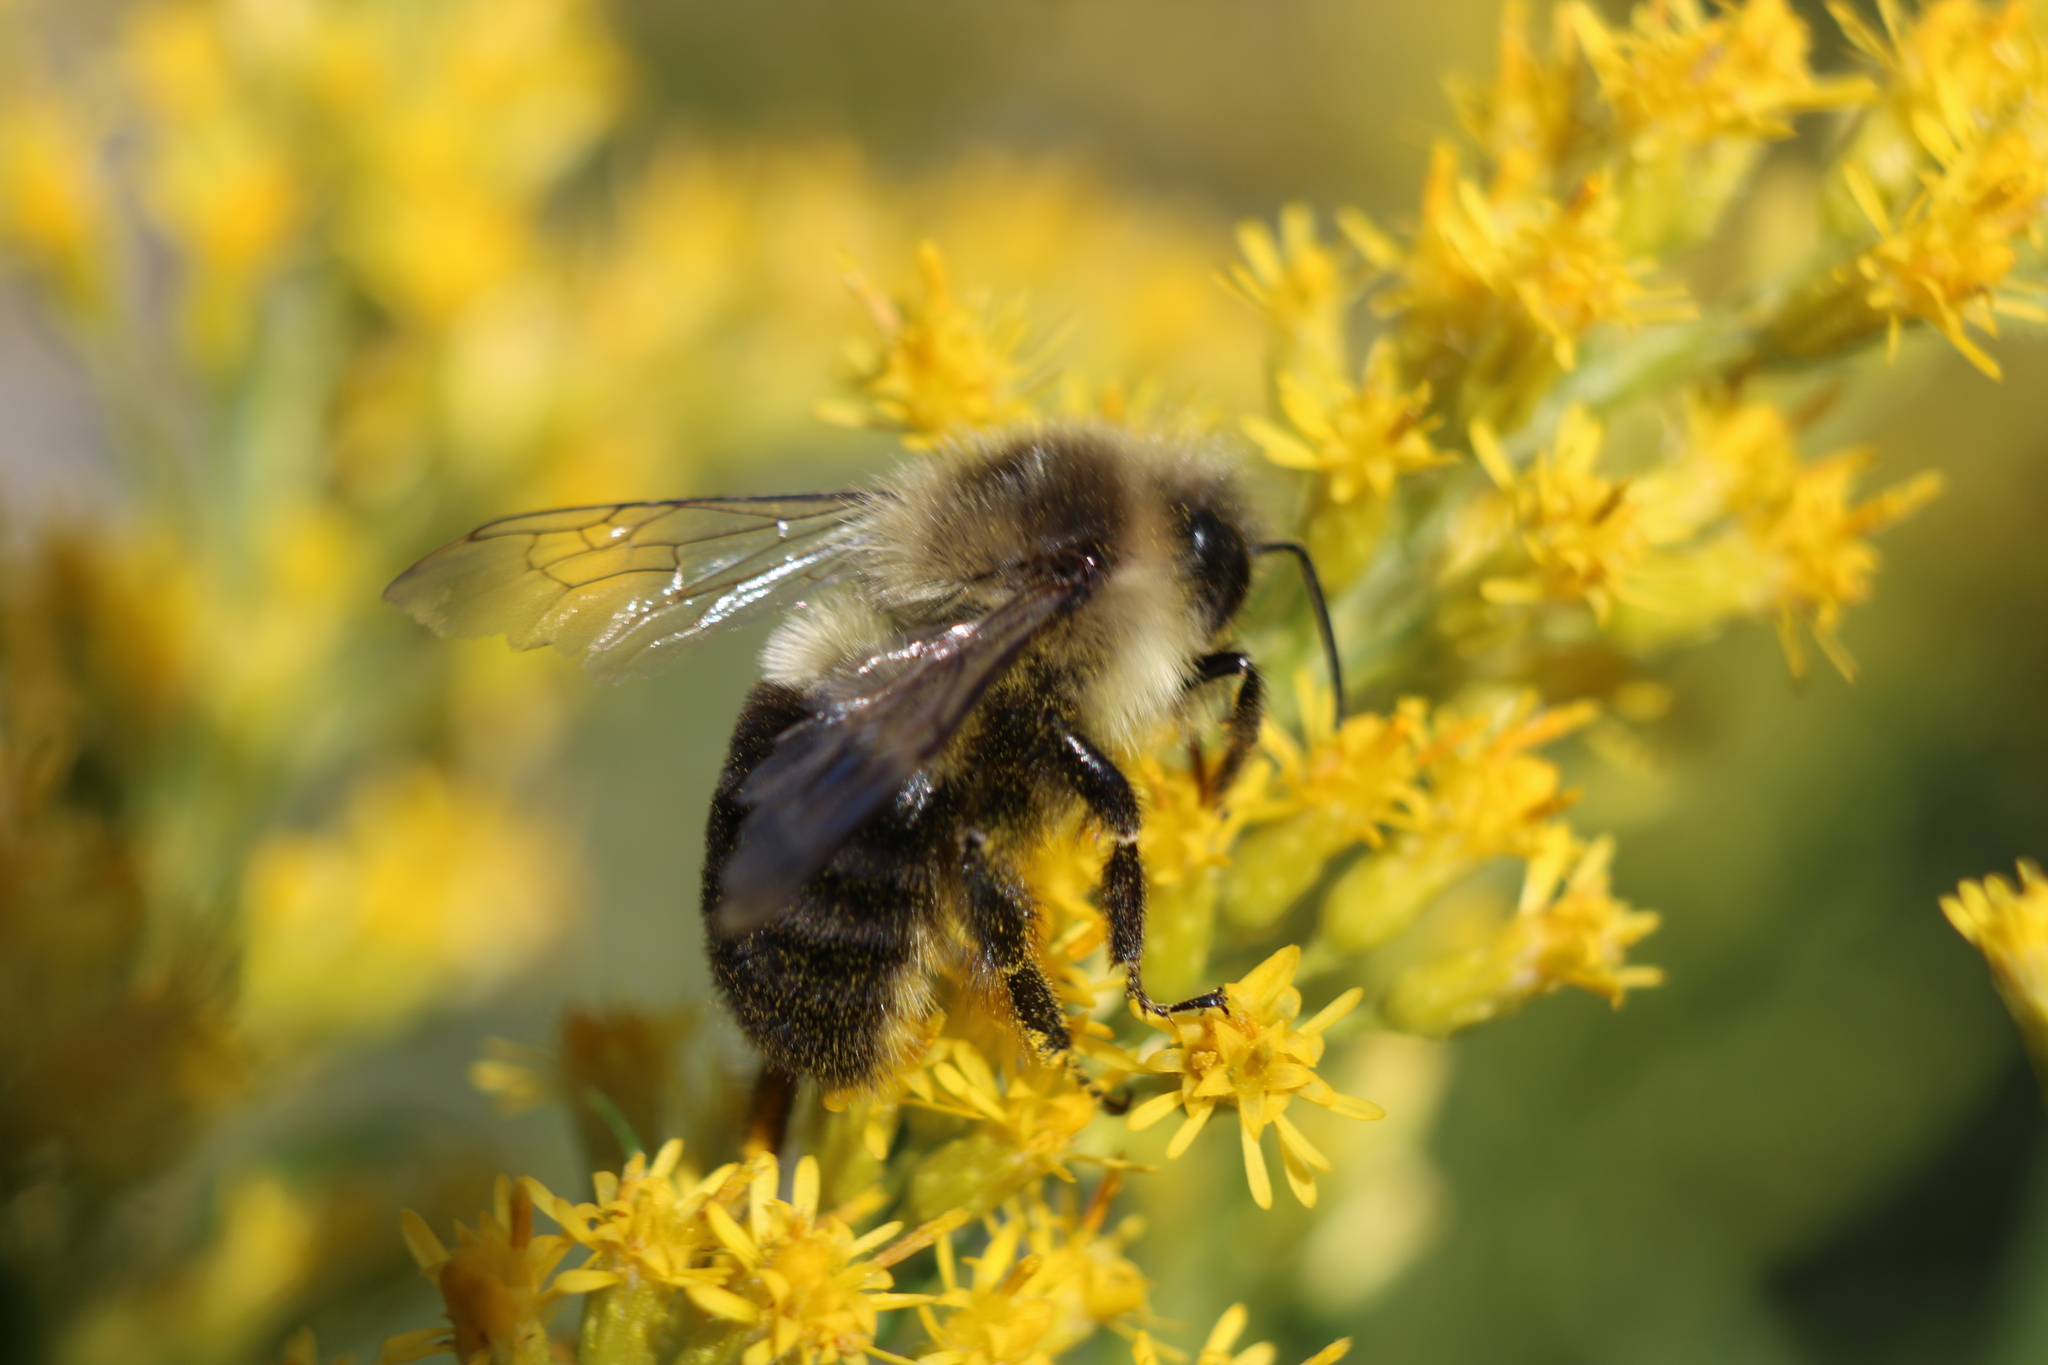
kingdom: Animalia
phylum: Arthropoda
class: Insecta
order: Hymenoptera
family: Apidae
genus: Bombus
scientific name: Bombus impatiens
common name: Common eastern bumble bee
